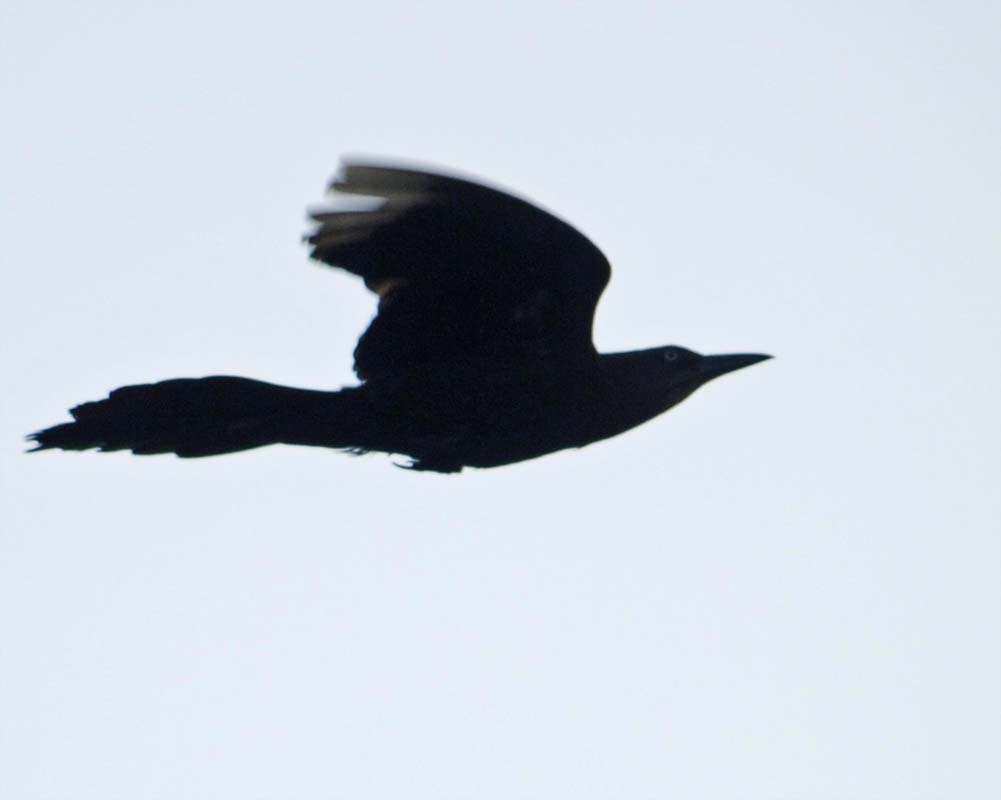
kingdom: Animalia
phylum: Chordata
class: Aves
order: Passeriformes
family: Icteridae
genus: Quiscalus
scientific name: Quiscalus mexicanus
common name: Great-tailed grackle
